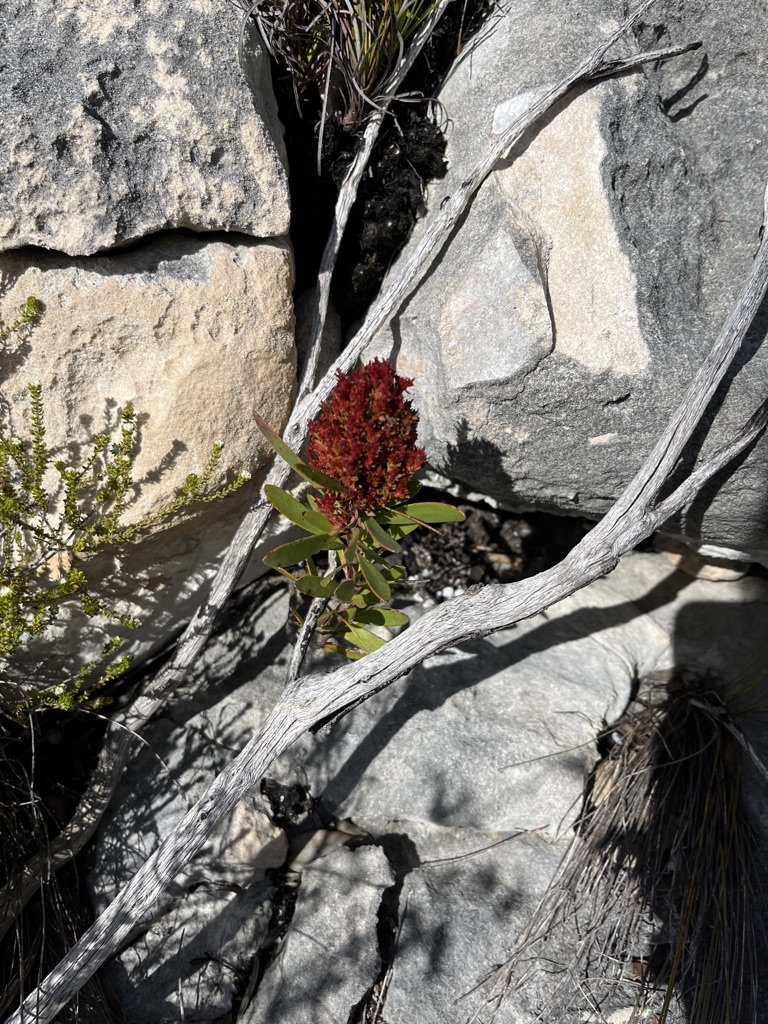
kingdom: Bacteria
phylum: Firmicutes
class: Bacilli
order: Acholeplasmatales
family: Acholeplasmataceae
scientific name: Acholeplasmataceae
